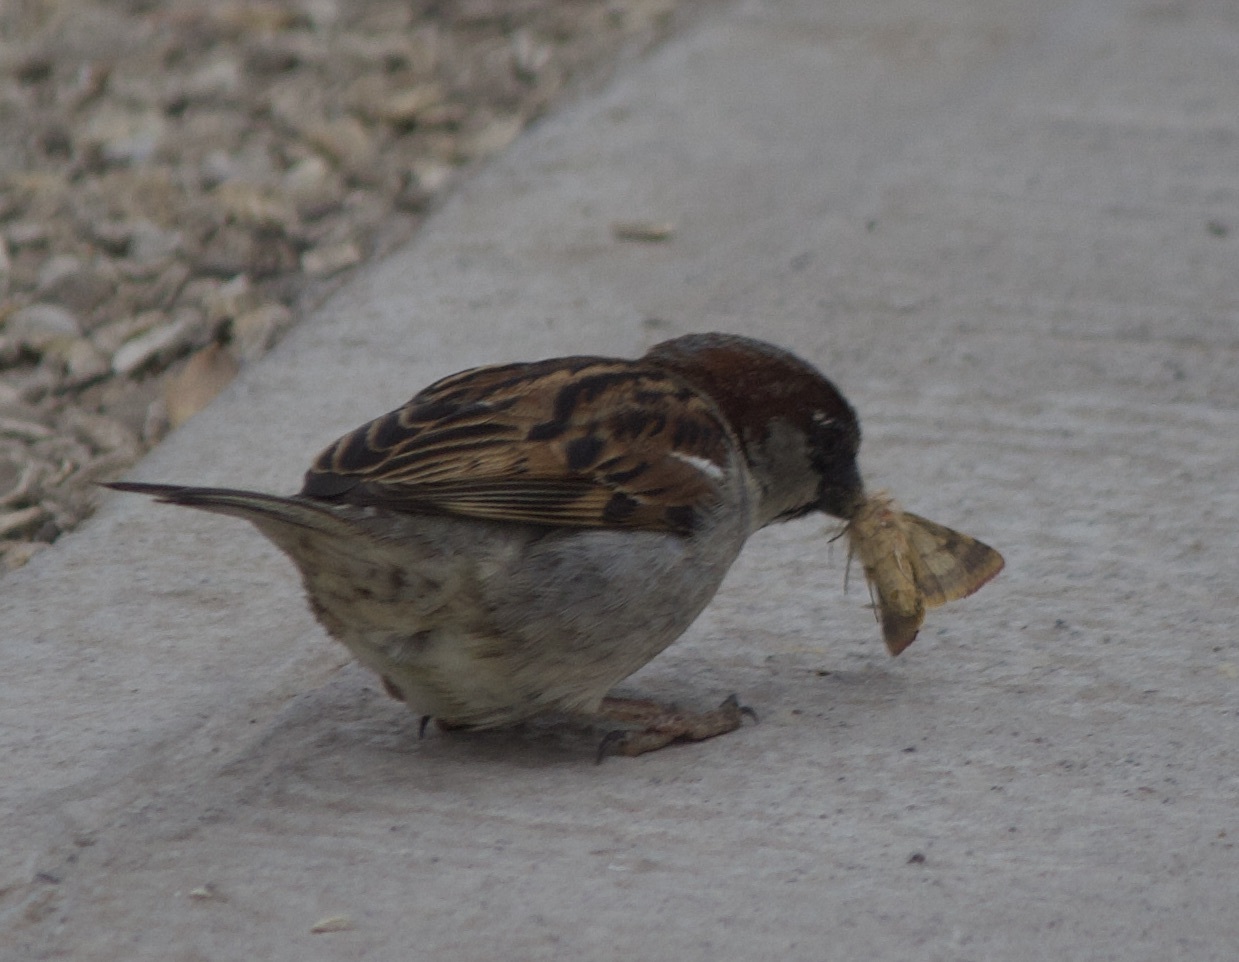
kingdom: Animalia
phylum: Chordata
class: Aves
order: Passeriformes
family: Passeridae
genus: Passer
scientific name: Passer domesticus
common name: House sparrow
